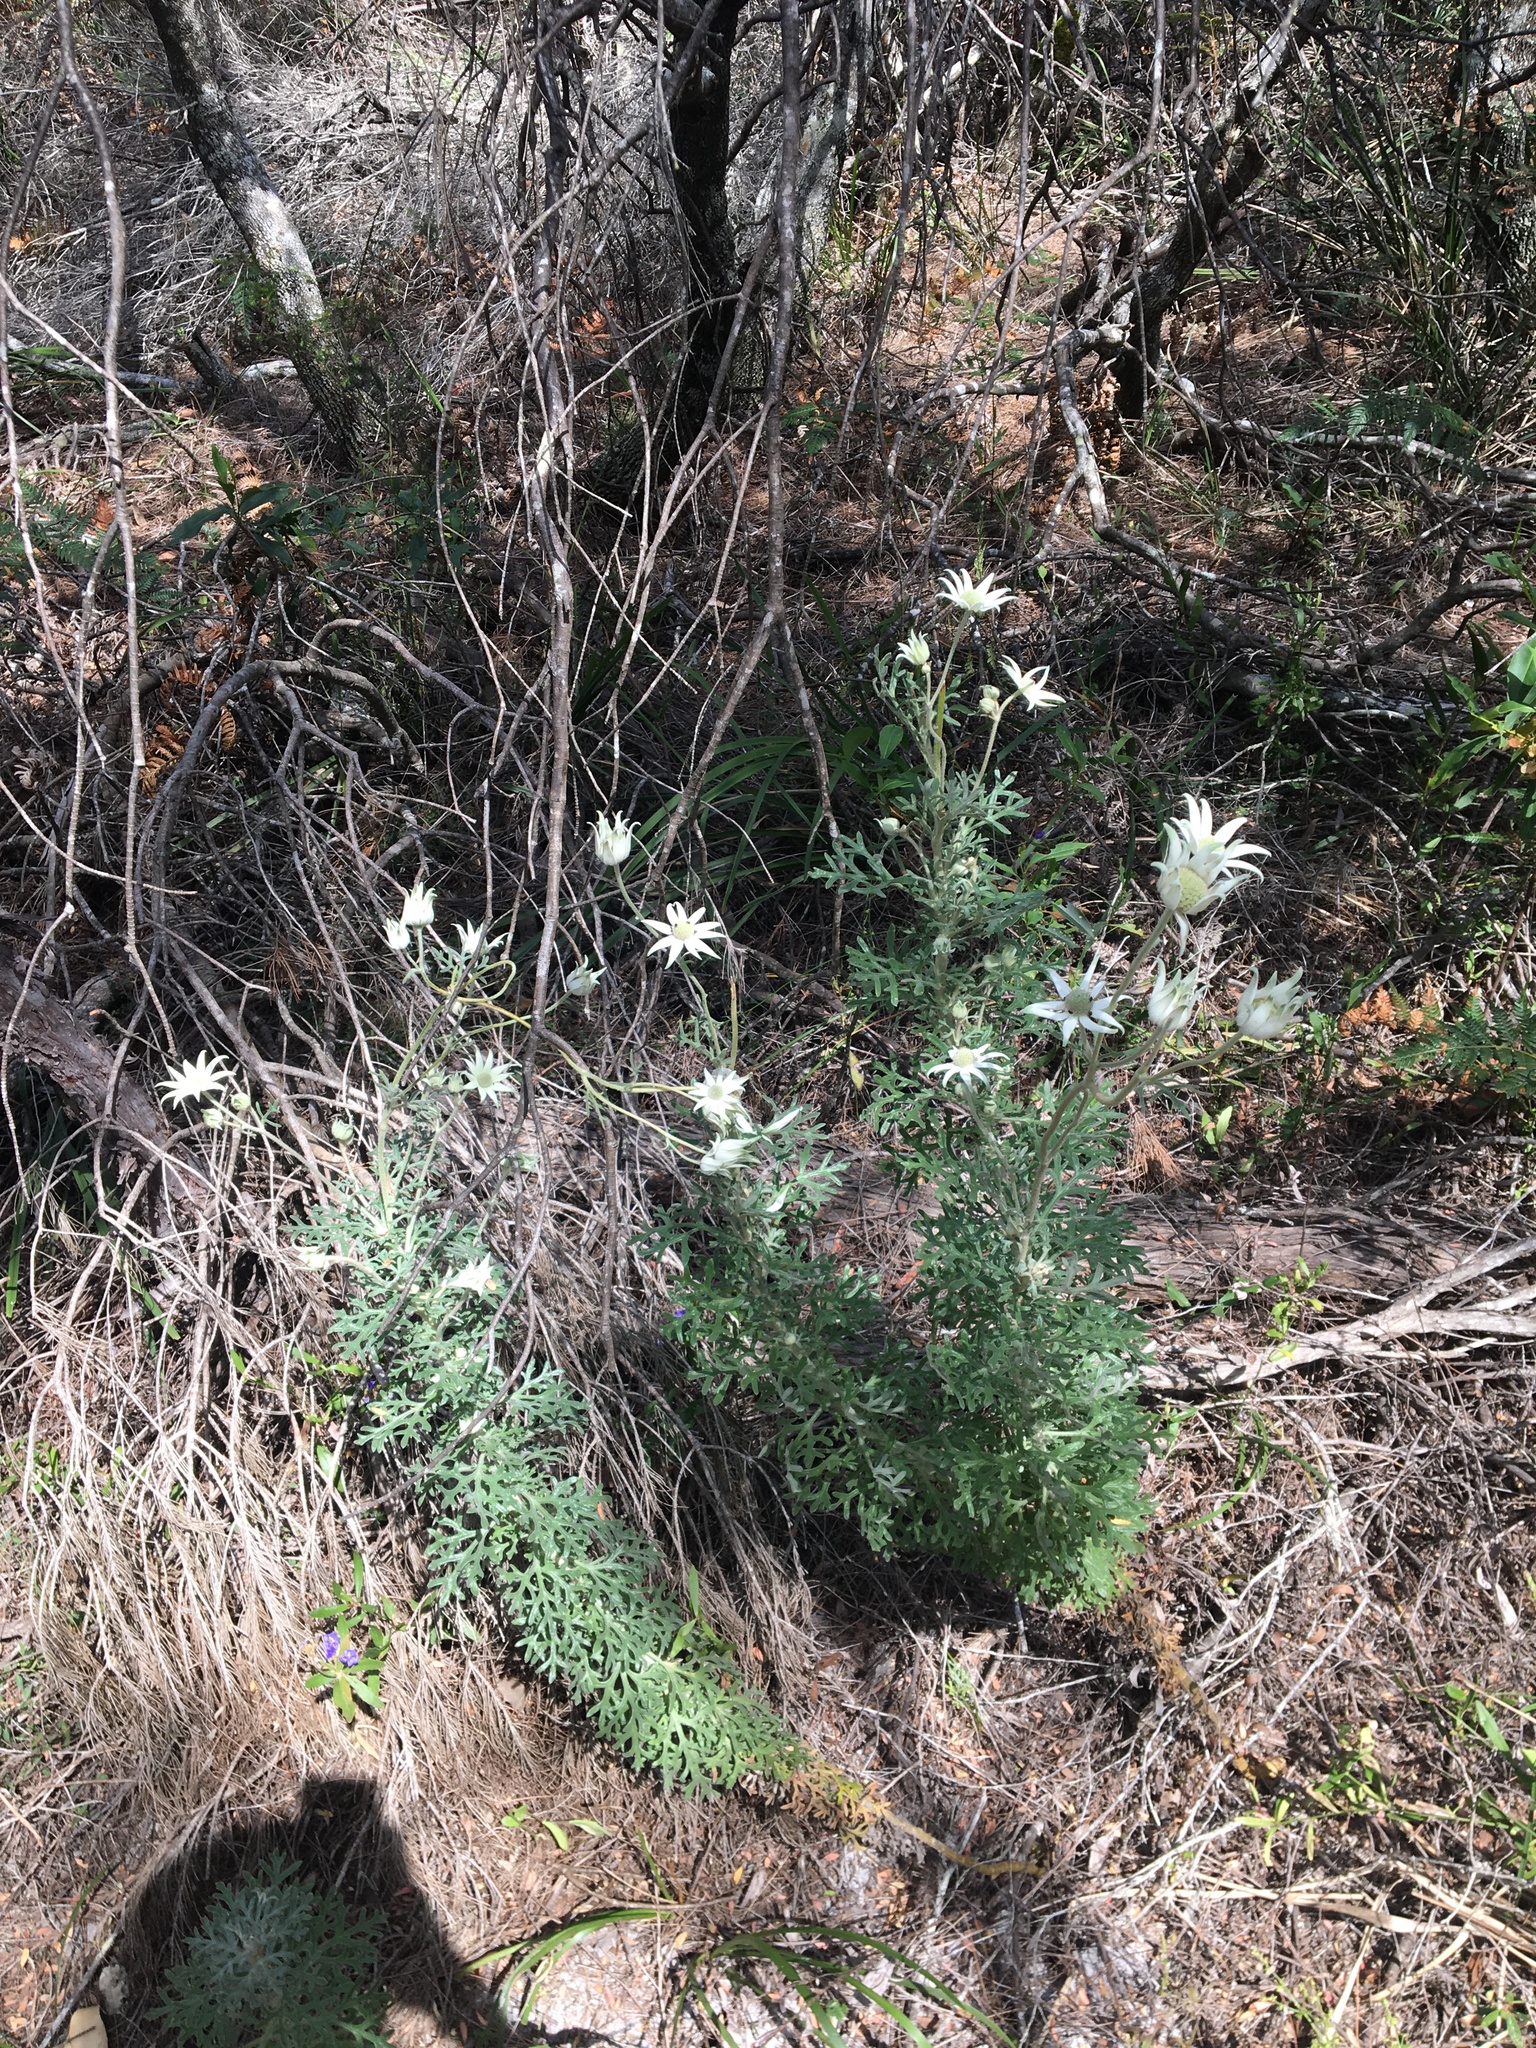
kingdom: Plantae
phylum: Tracheophyta
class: Magnoliopsida
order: Apiales
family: Apiaceae
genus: Actinotus
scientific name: Actinotus helianthi
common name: Flannel-flower
